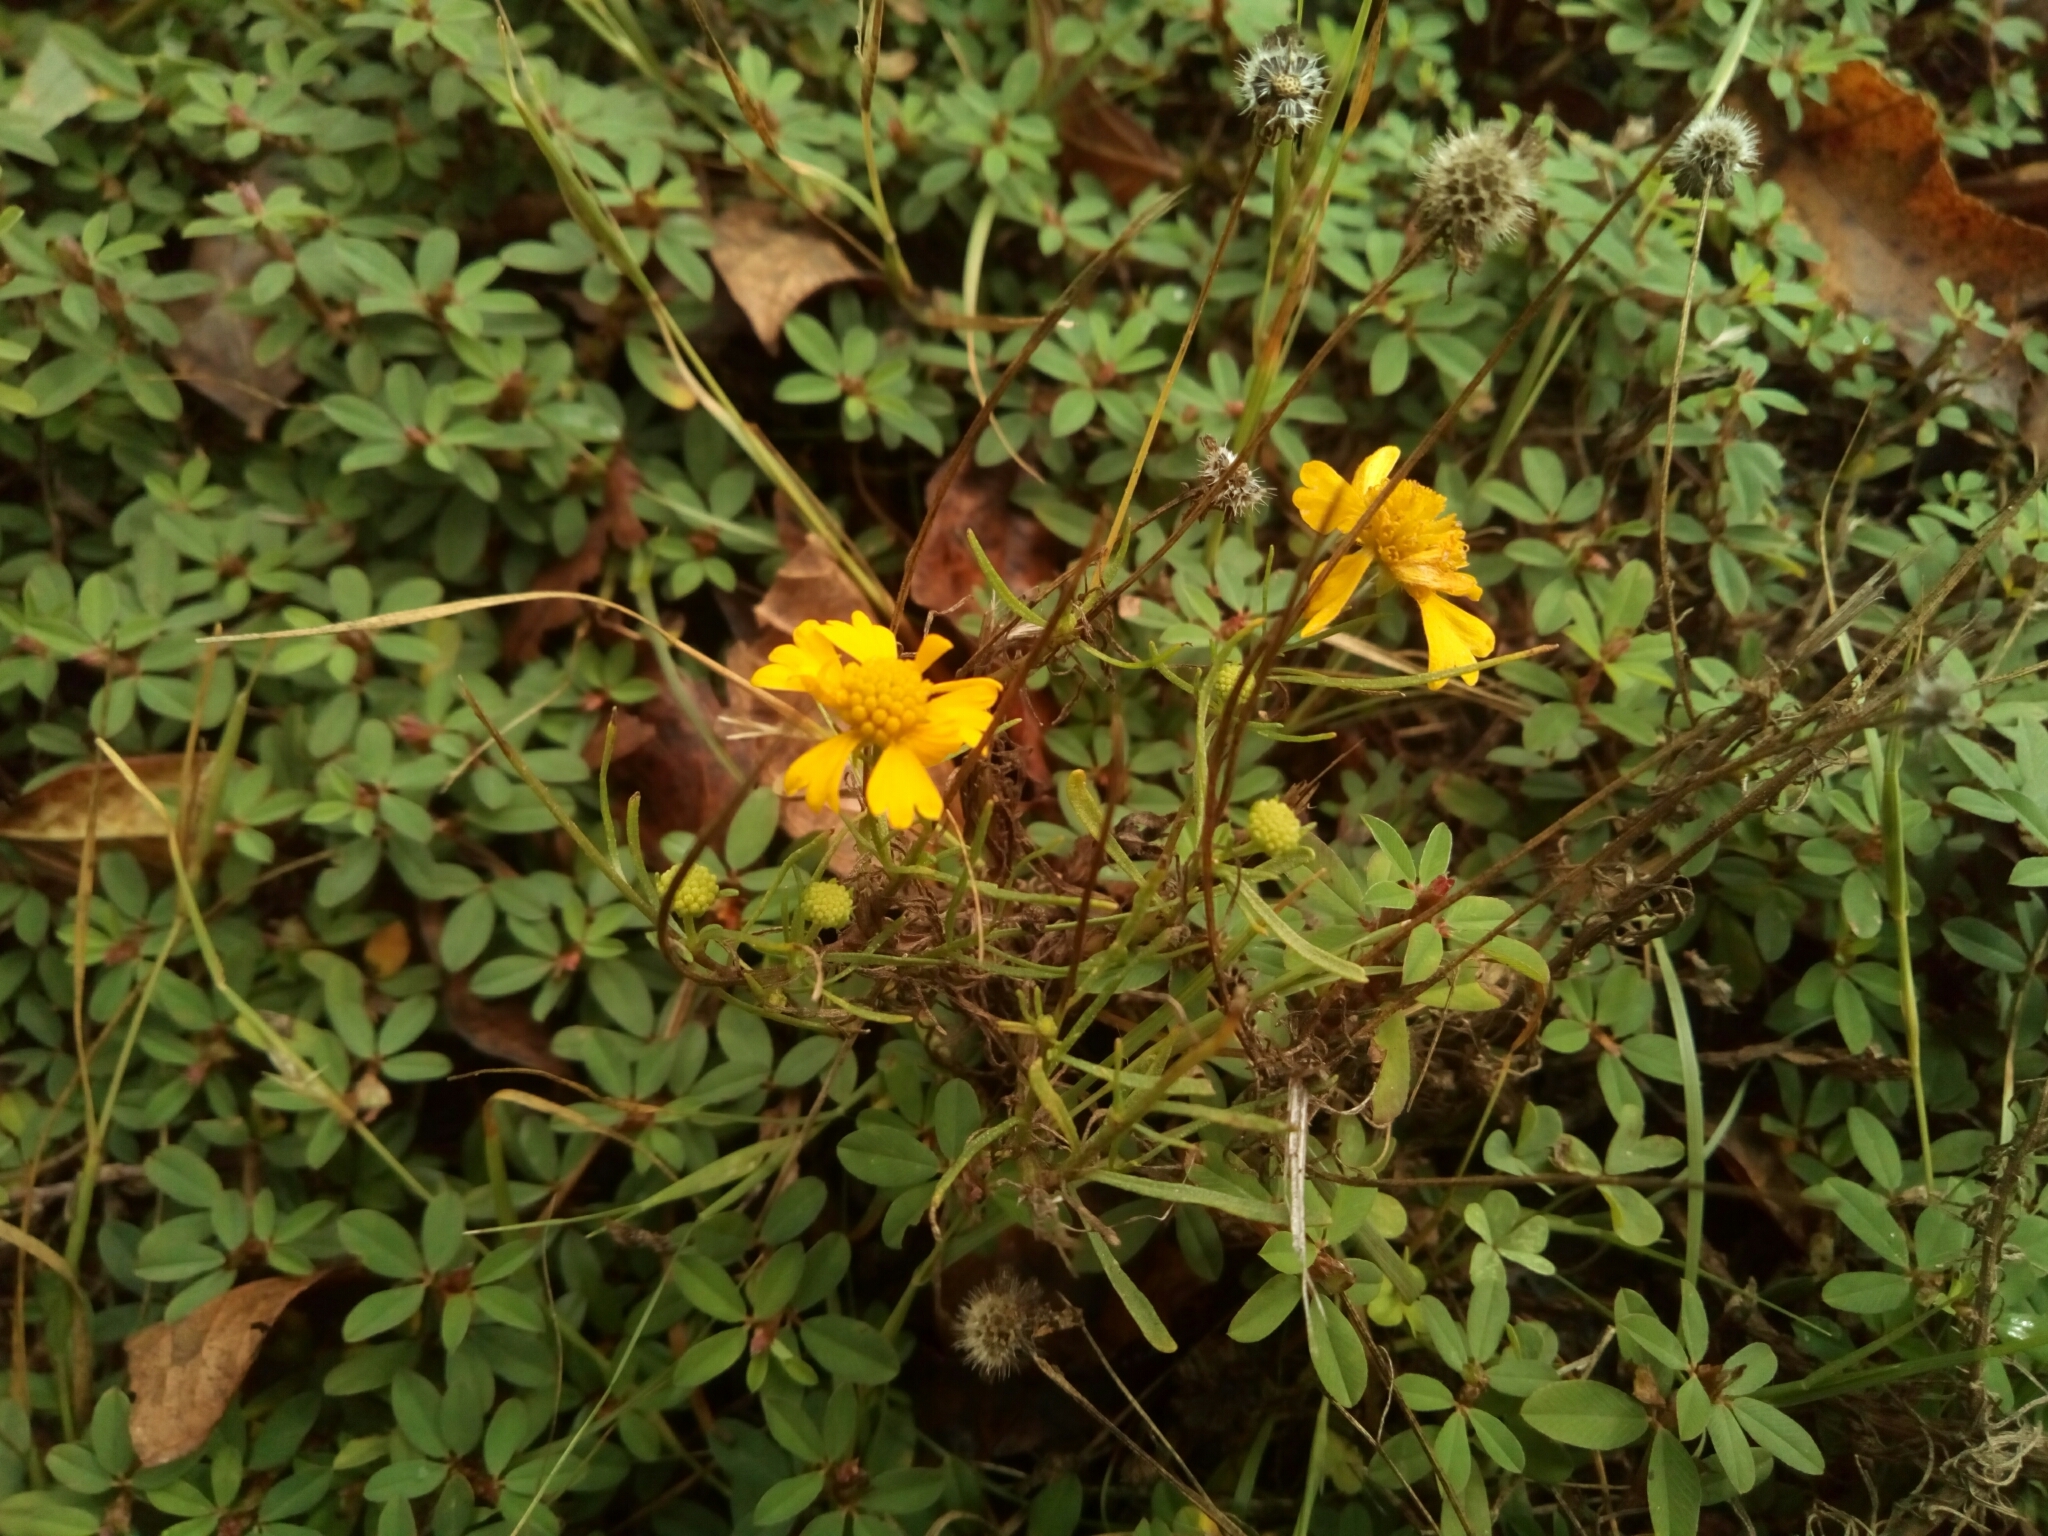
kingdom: Plantae
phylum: Tracheophyta
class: Magnoliopsida
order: Asterales
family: Asteraceae
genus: Helenium
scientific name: Helenium amarum
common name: Bitter sneezeweed
